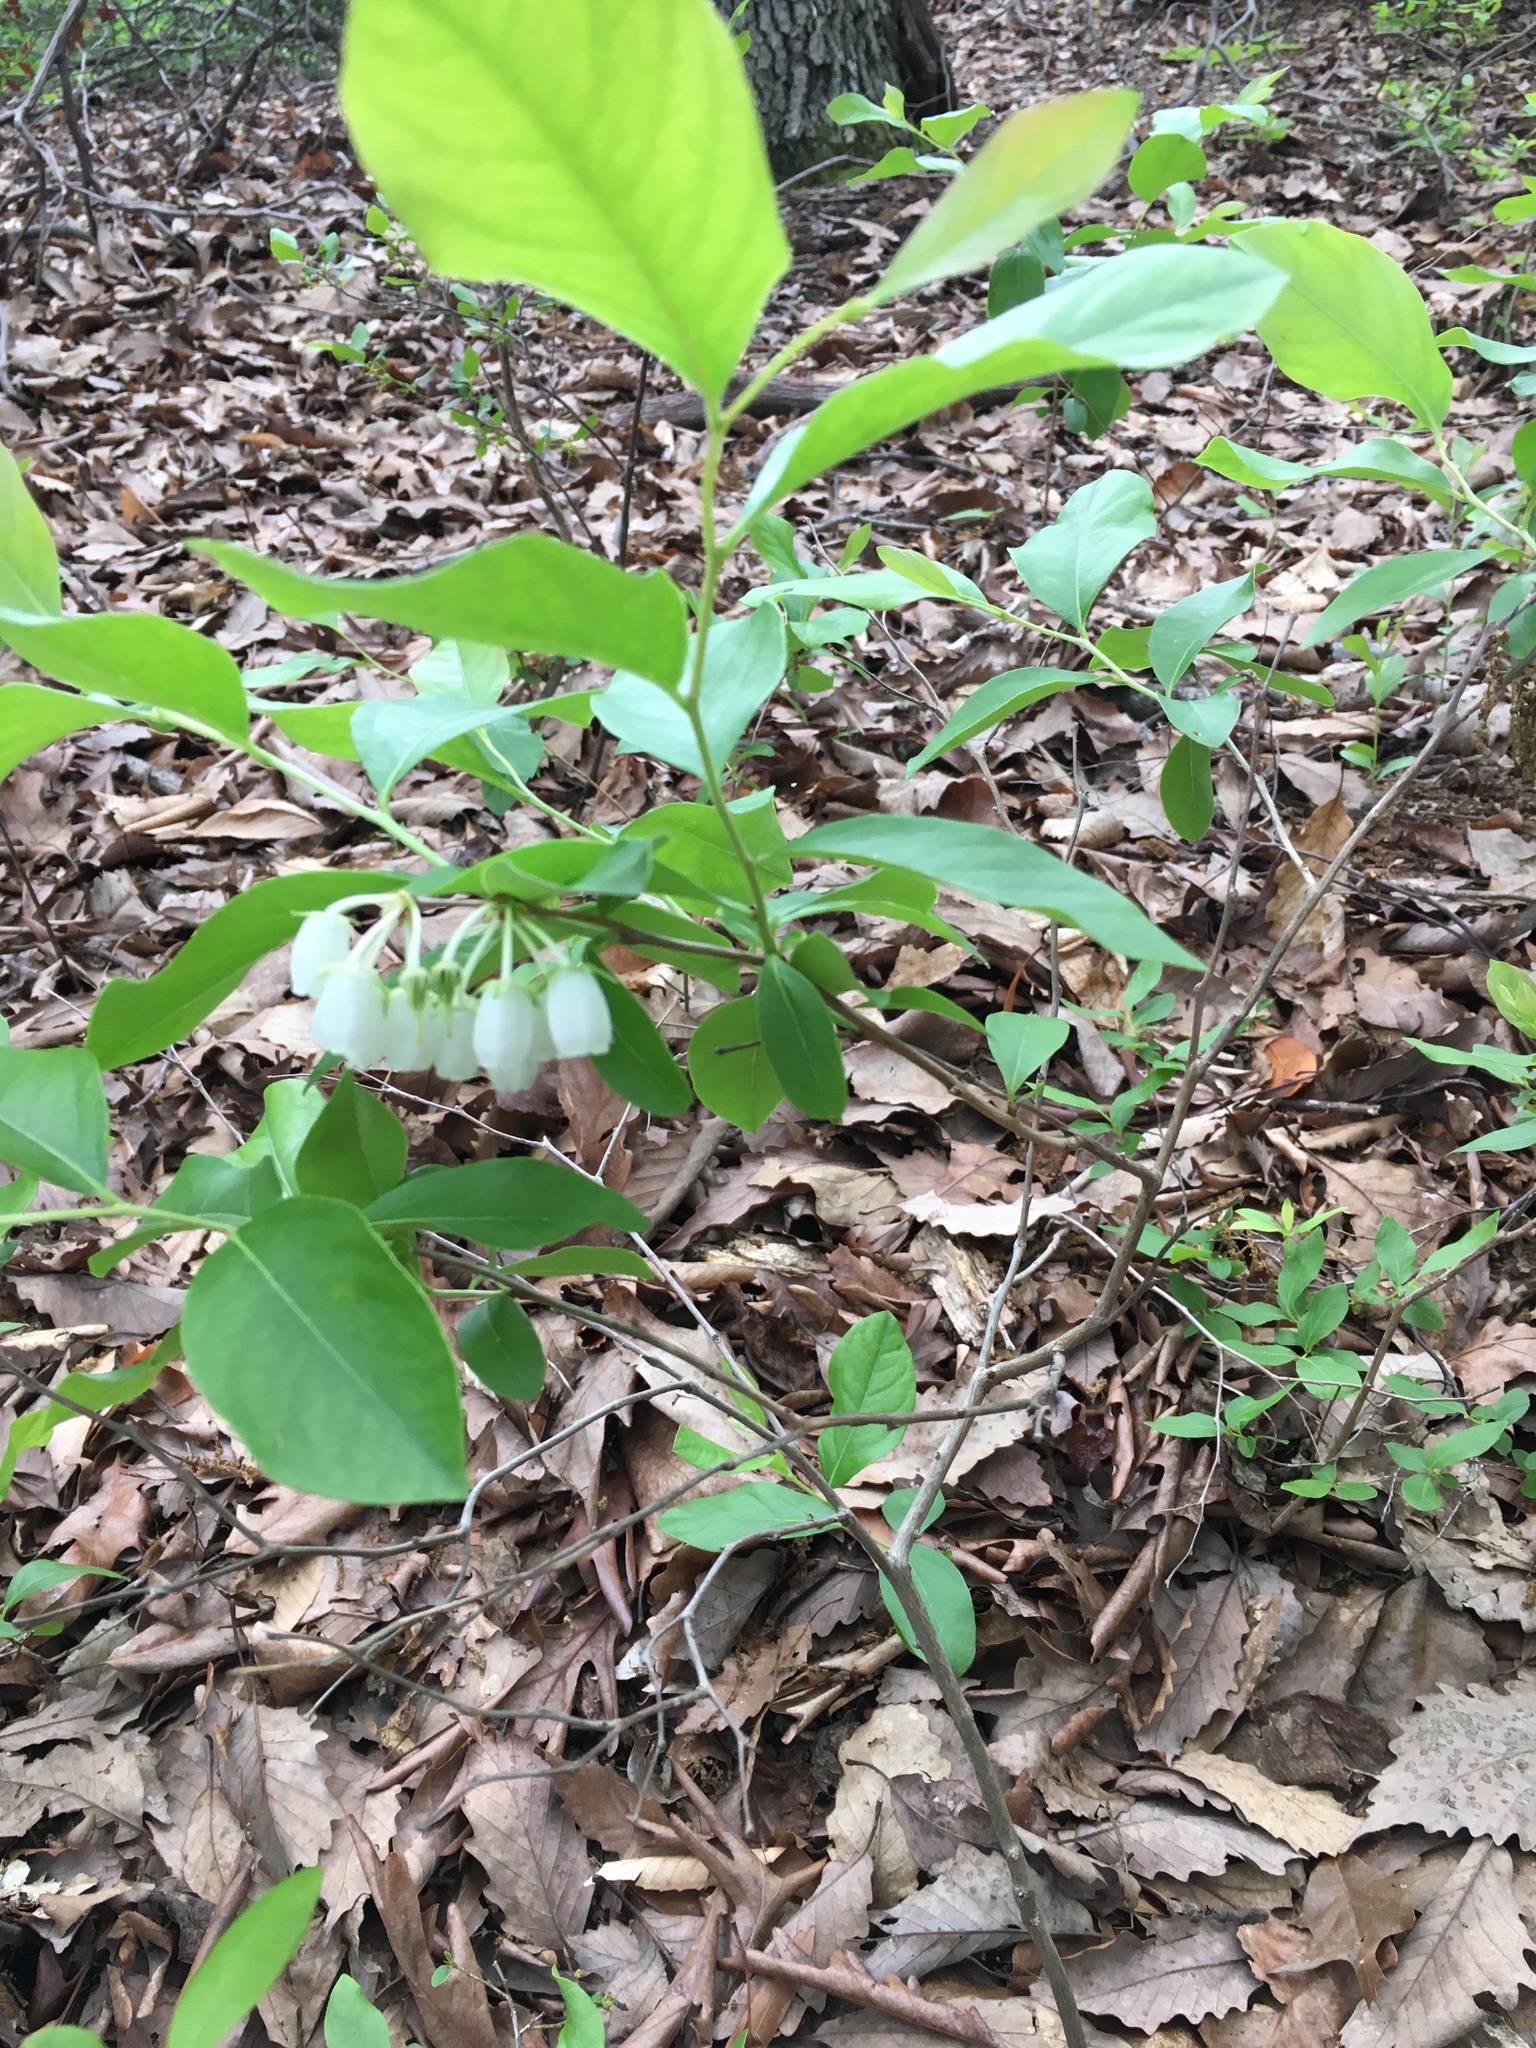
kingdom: Plantae
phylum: Tracheophyta
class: Magnoliopsida
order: Ericales
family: Ericaceae
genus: Lyonia
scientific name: Lyonia mariana
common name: Staggerbush
